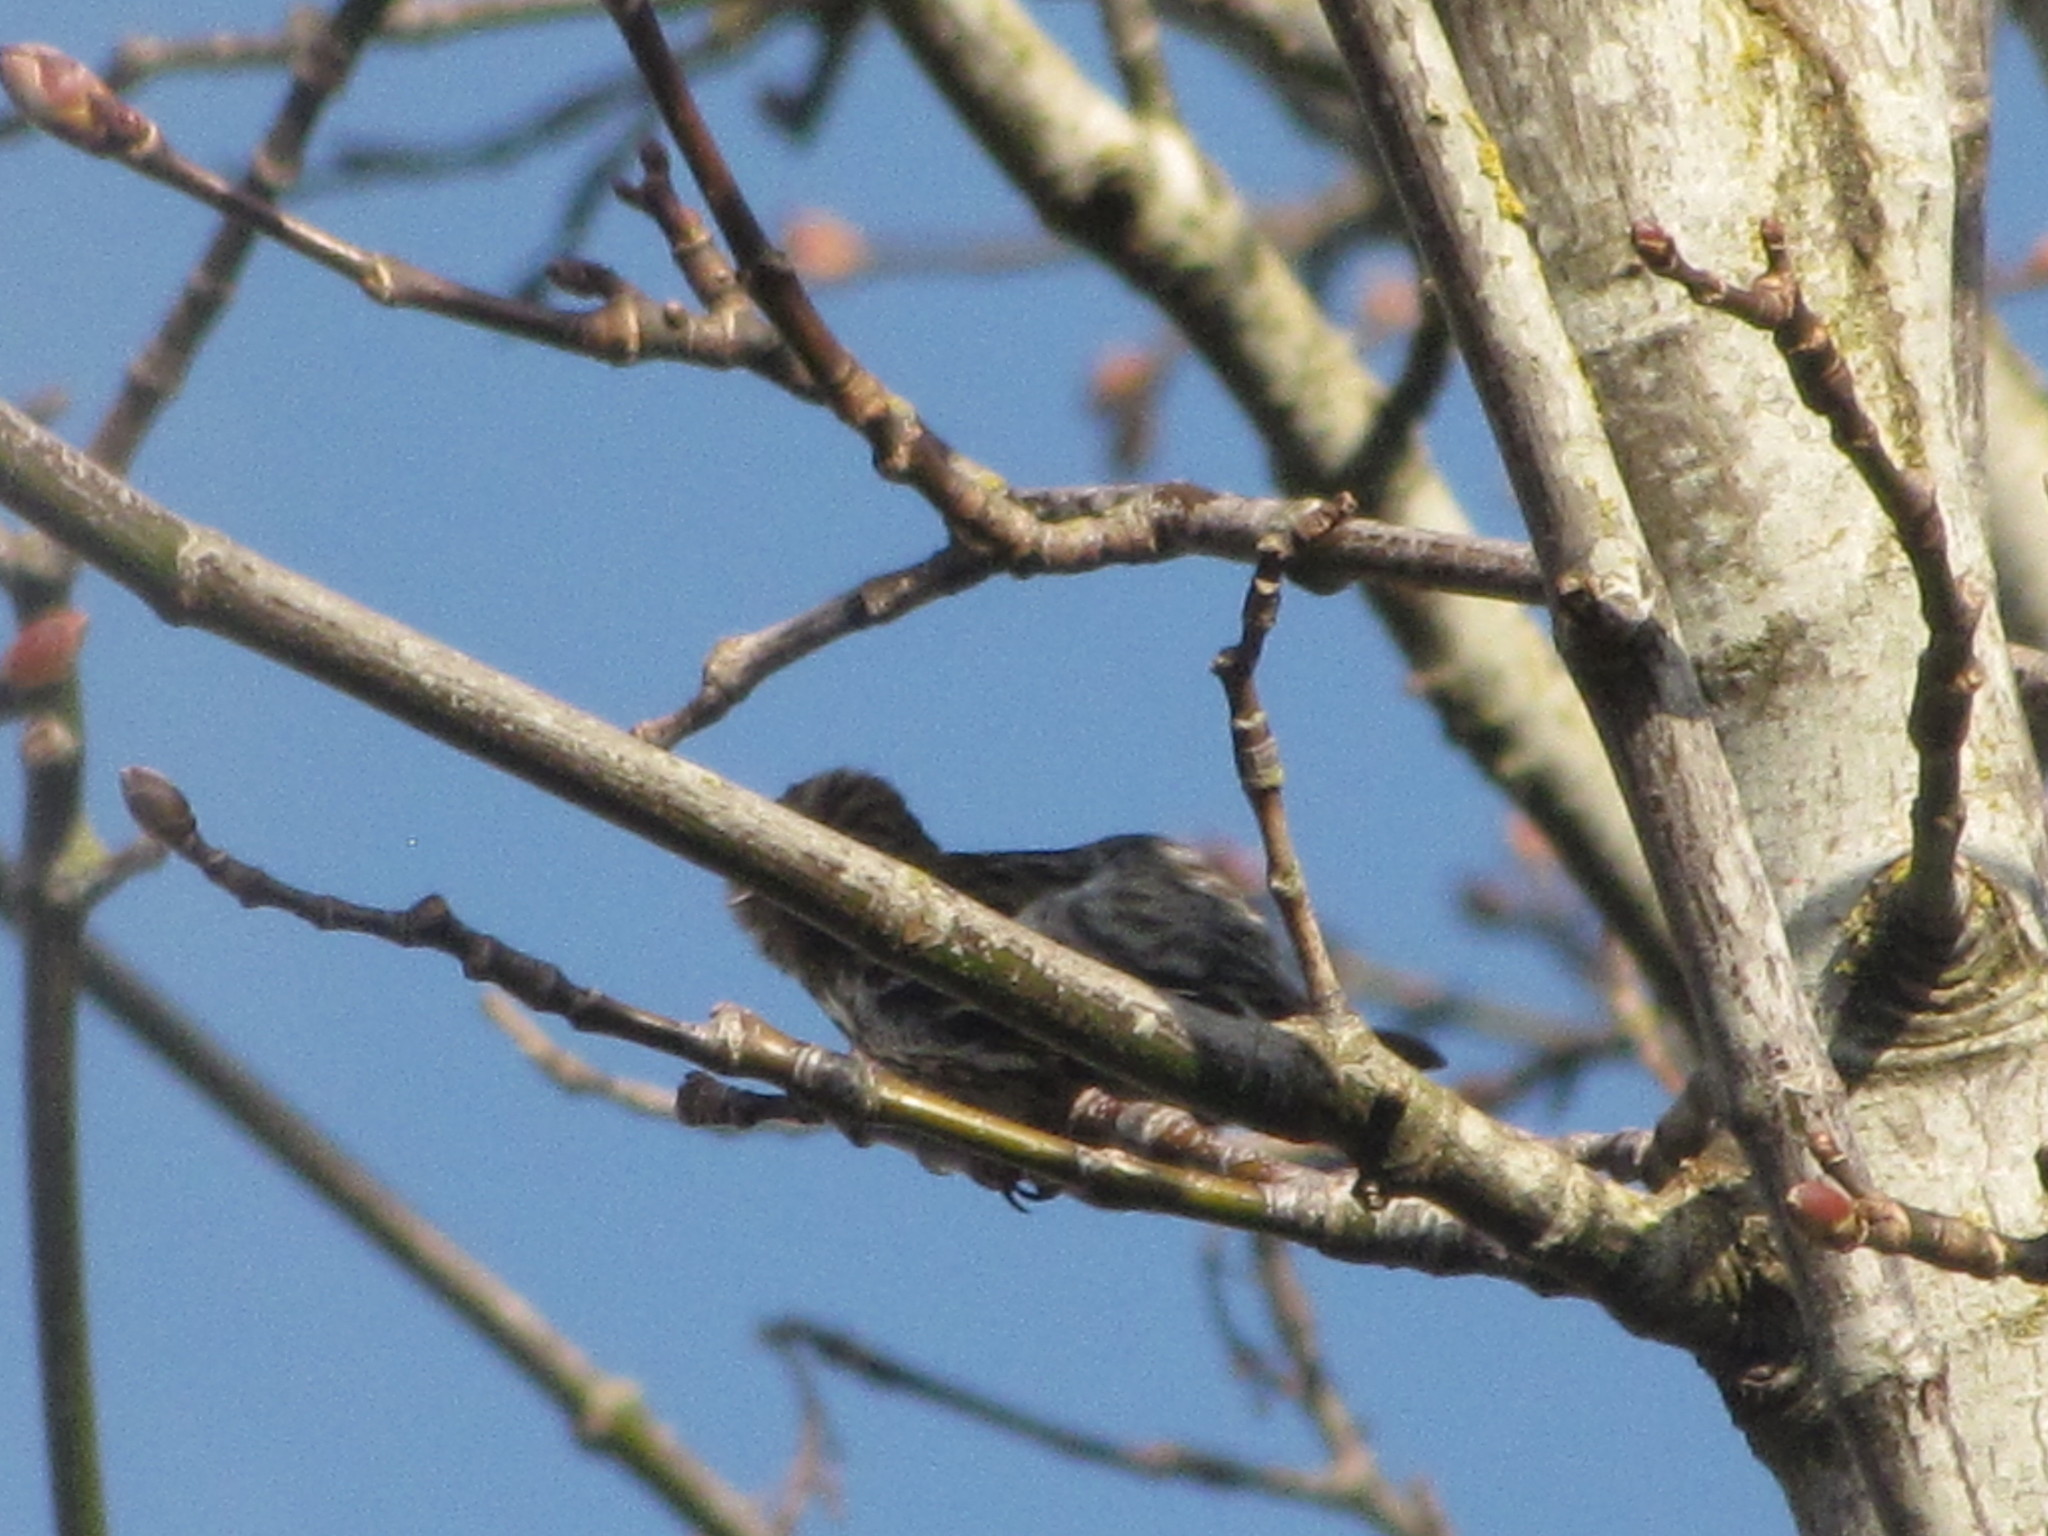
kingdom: Animalia
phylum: Chordata
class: Aves
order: Passeriformes
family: Fringillidae
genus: Spinus
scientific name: Spinus pinus
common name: Pine siskin
